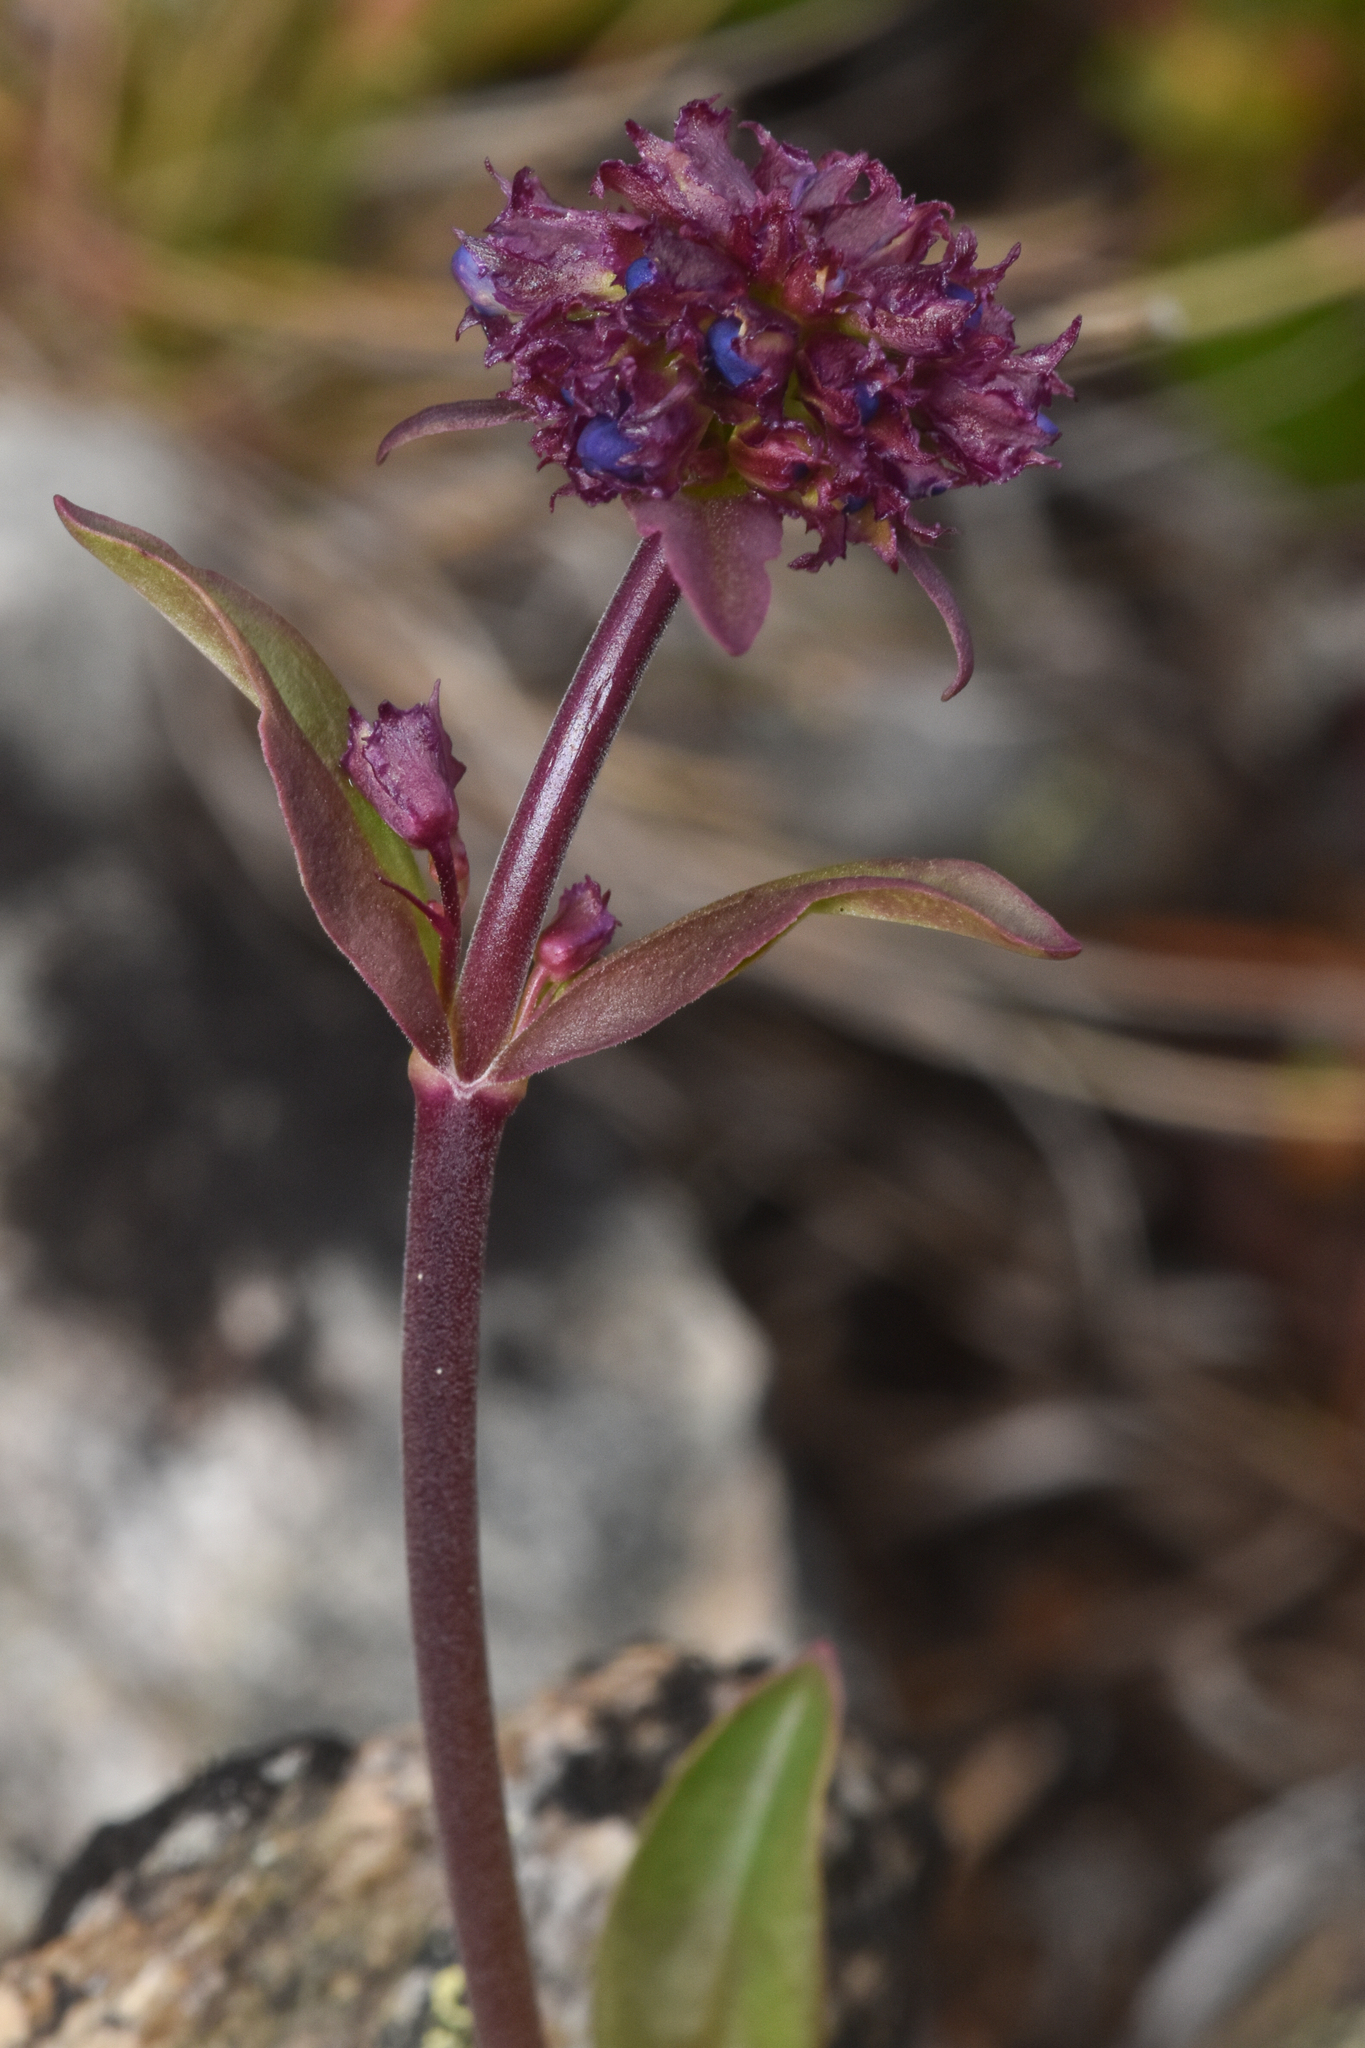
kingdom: Plantae
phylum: Tracheophyta
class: Magnoliopsida
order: Lamiales
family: Plantaginaceae
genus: Penstemon
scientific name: Penstemon procerus
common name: Small-flower penstemon
